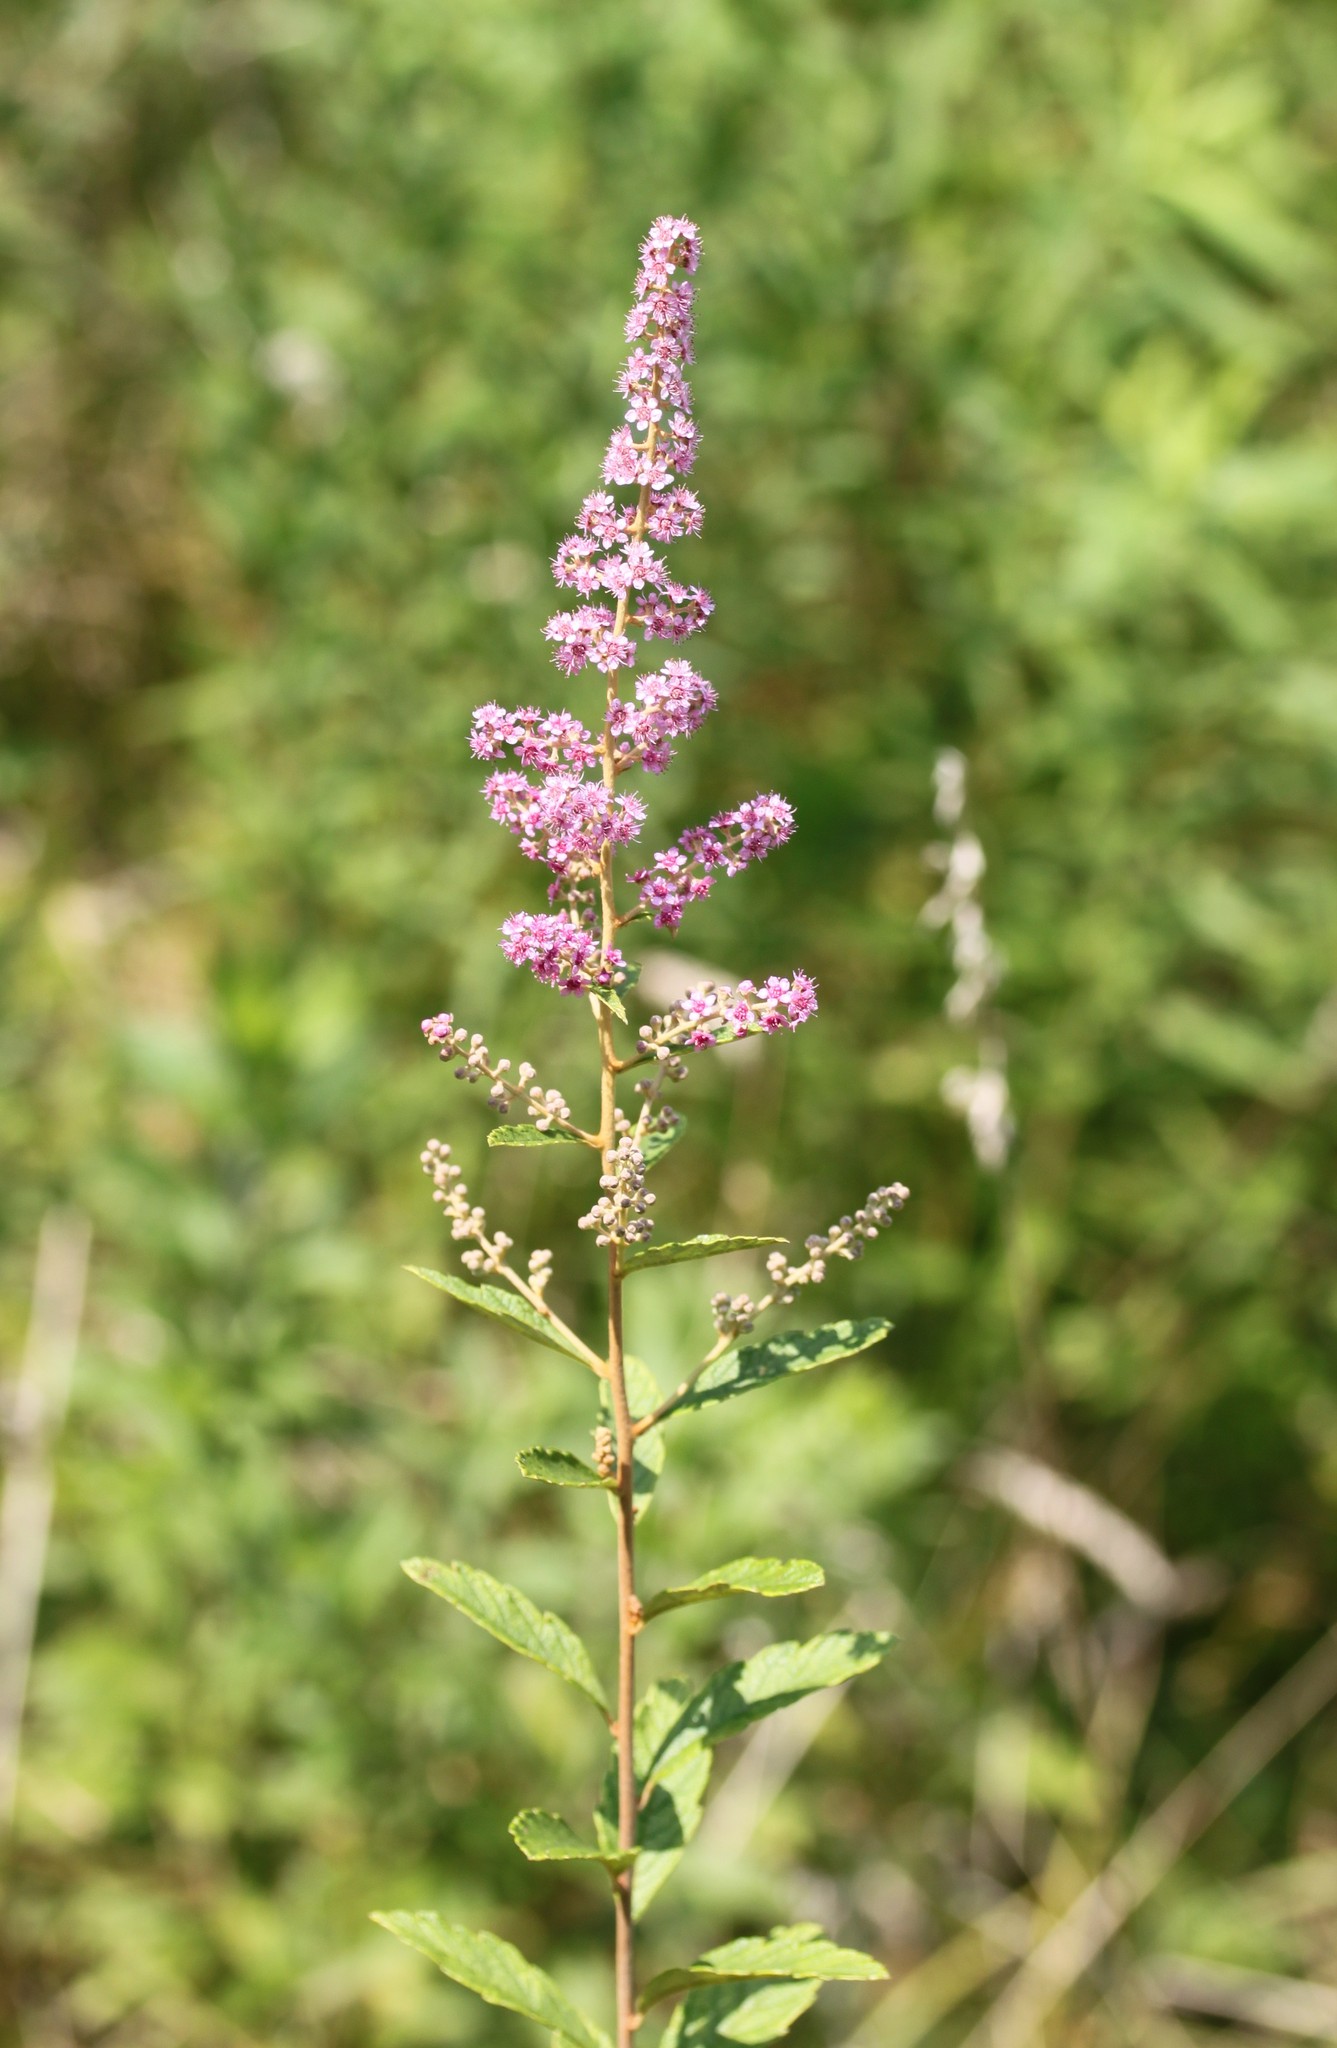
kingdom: Plantae
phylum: Tracheophyta
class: Magnoliopsida
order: Rosales
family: Rosaceae
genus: Spiraea
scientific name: Spiraea tomentosa
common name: Hardhack
